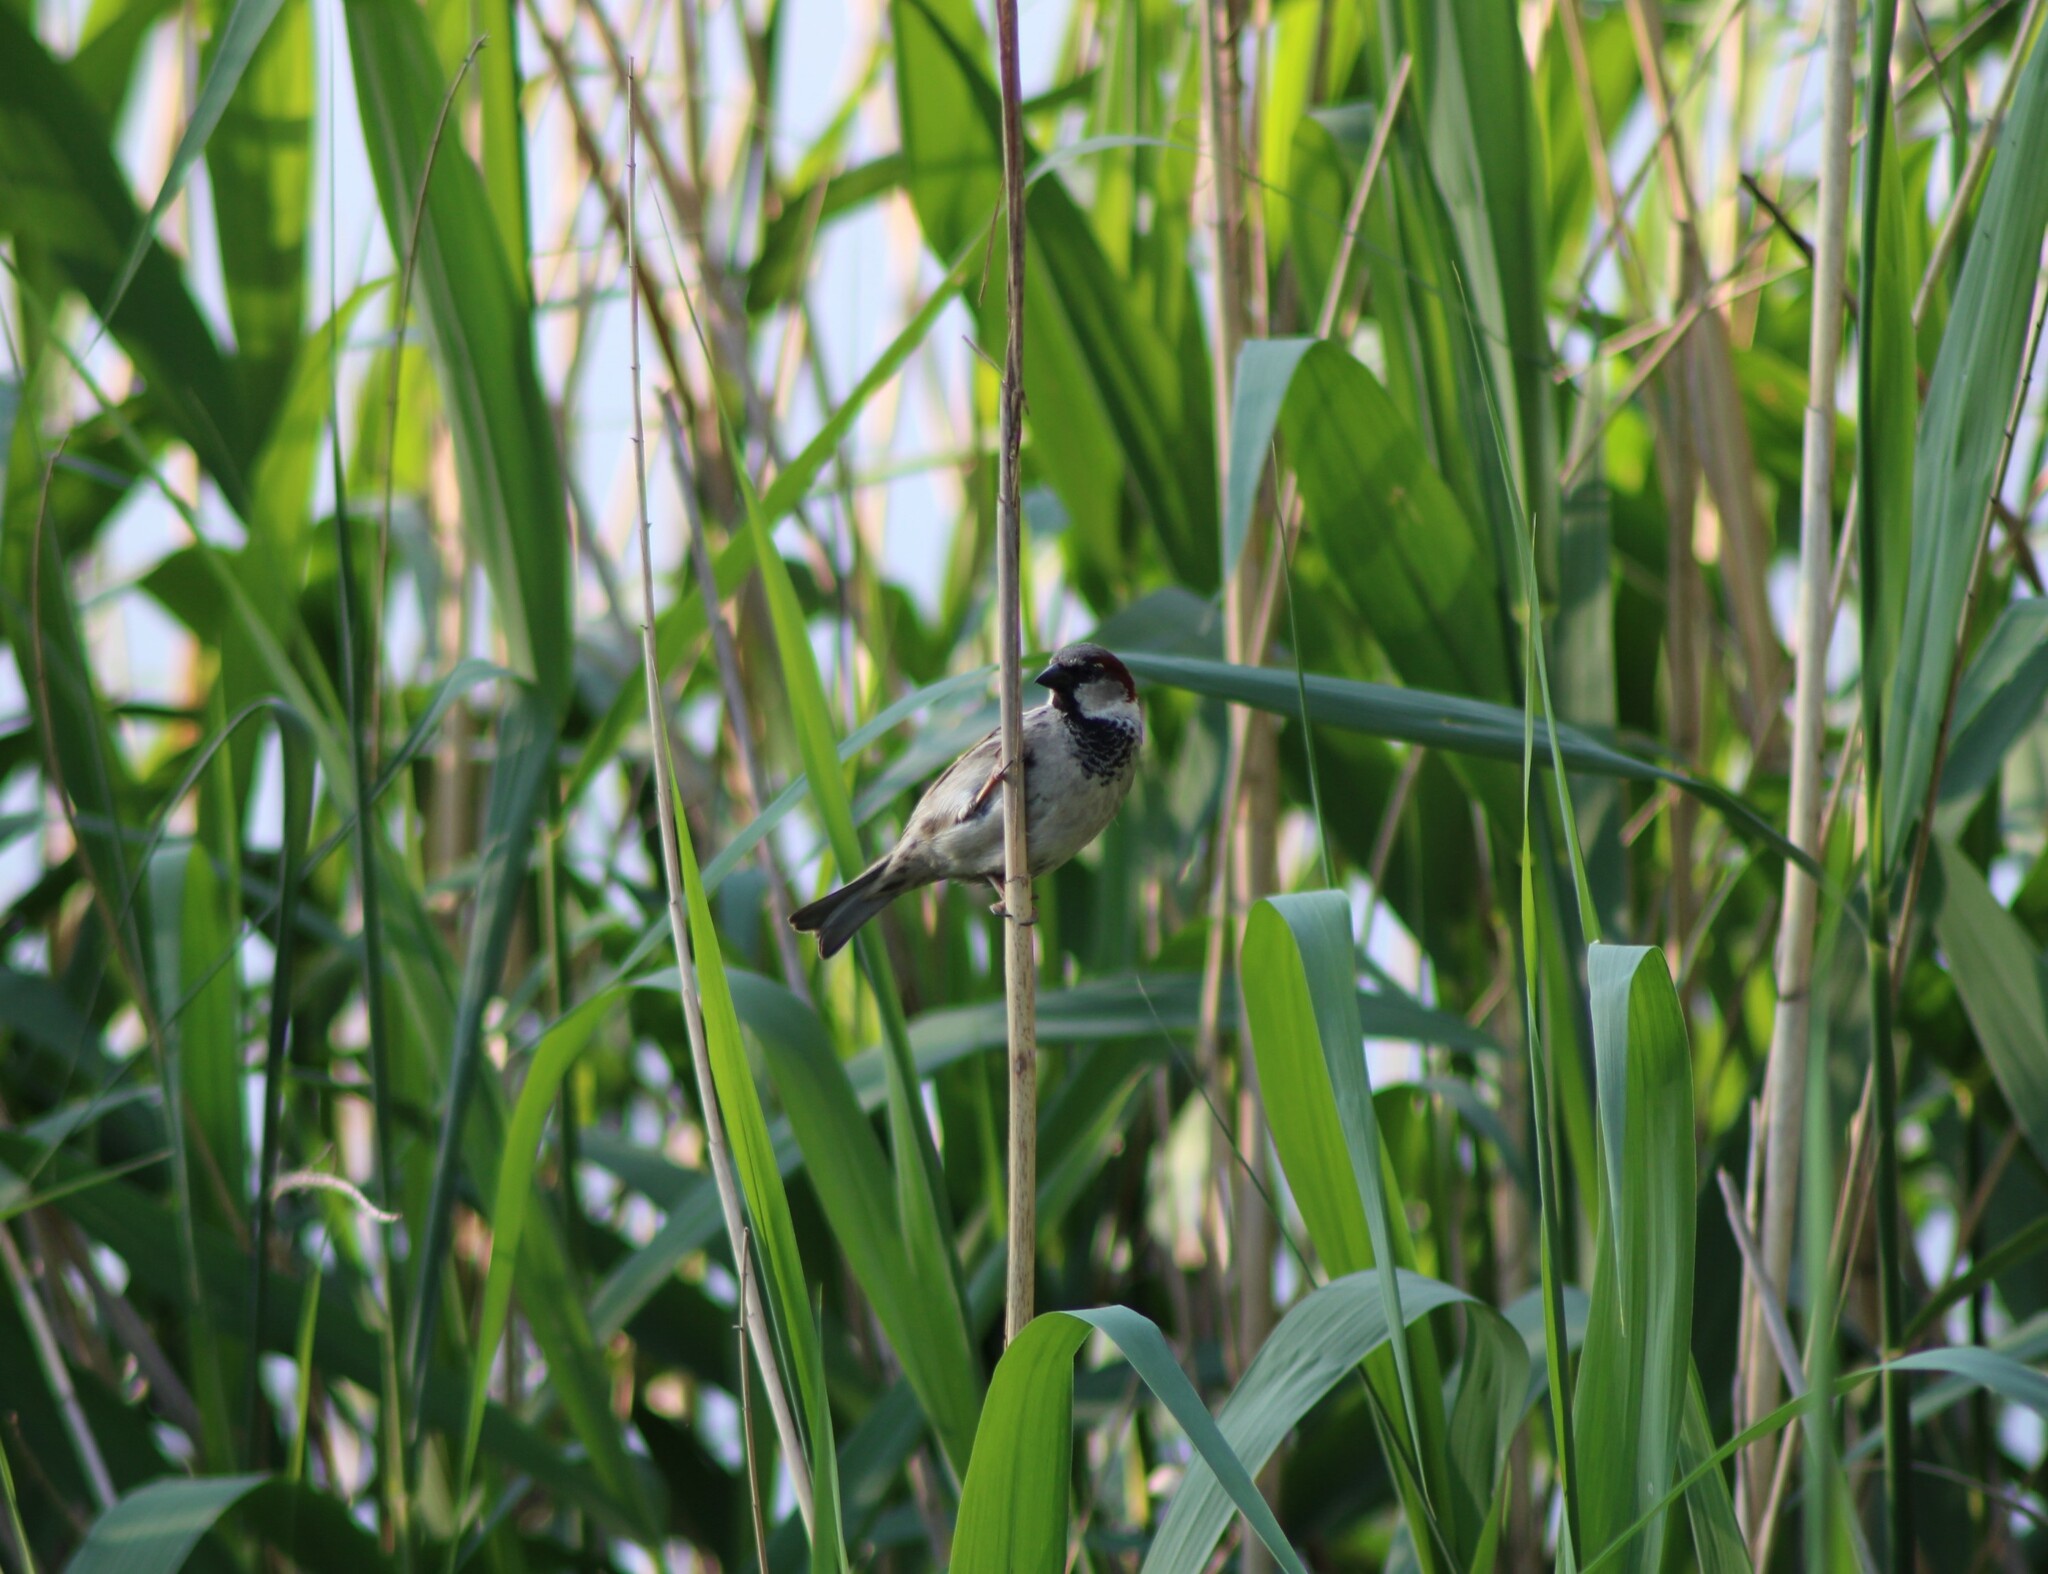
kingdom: Animalia
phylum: Chordata
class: Aves
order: Passeriformes
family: Passeridae
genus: Passer
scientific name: Passer domesticus
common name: House sparrow
